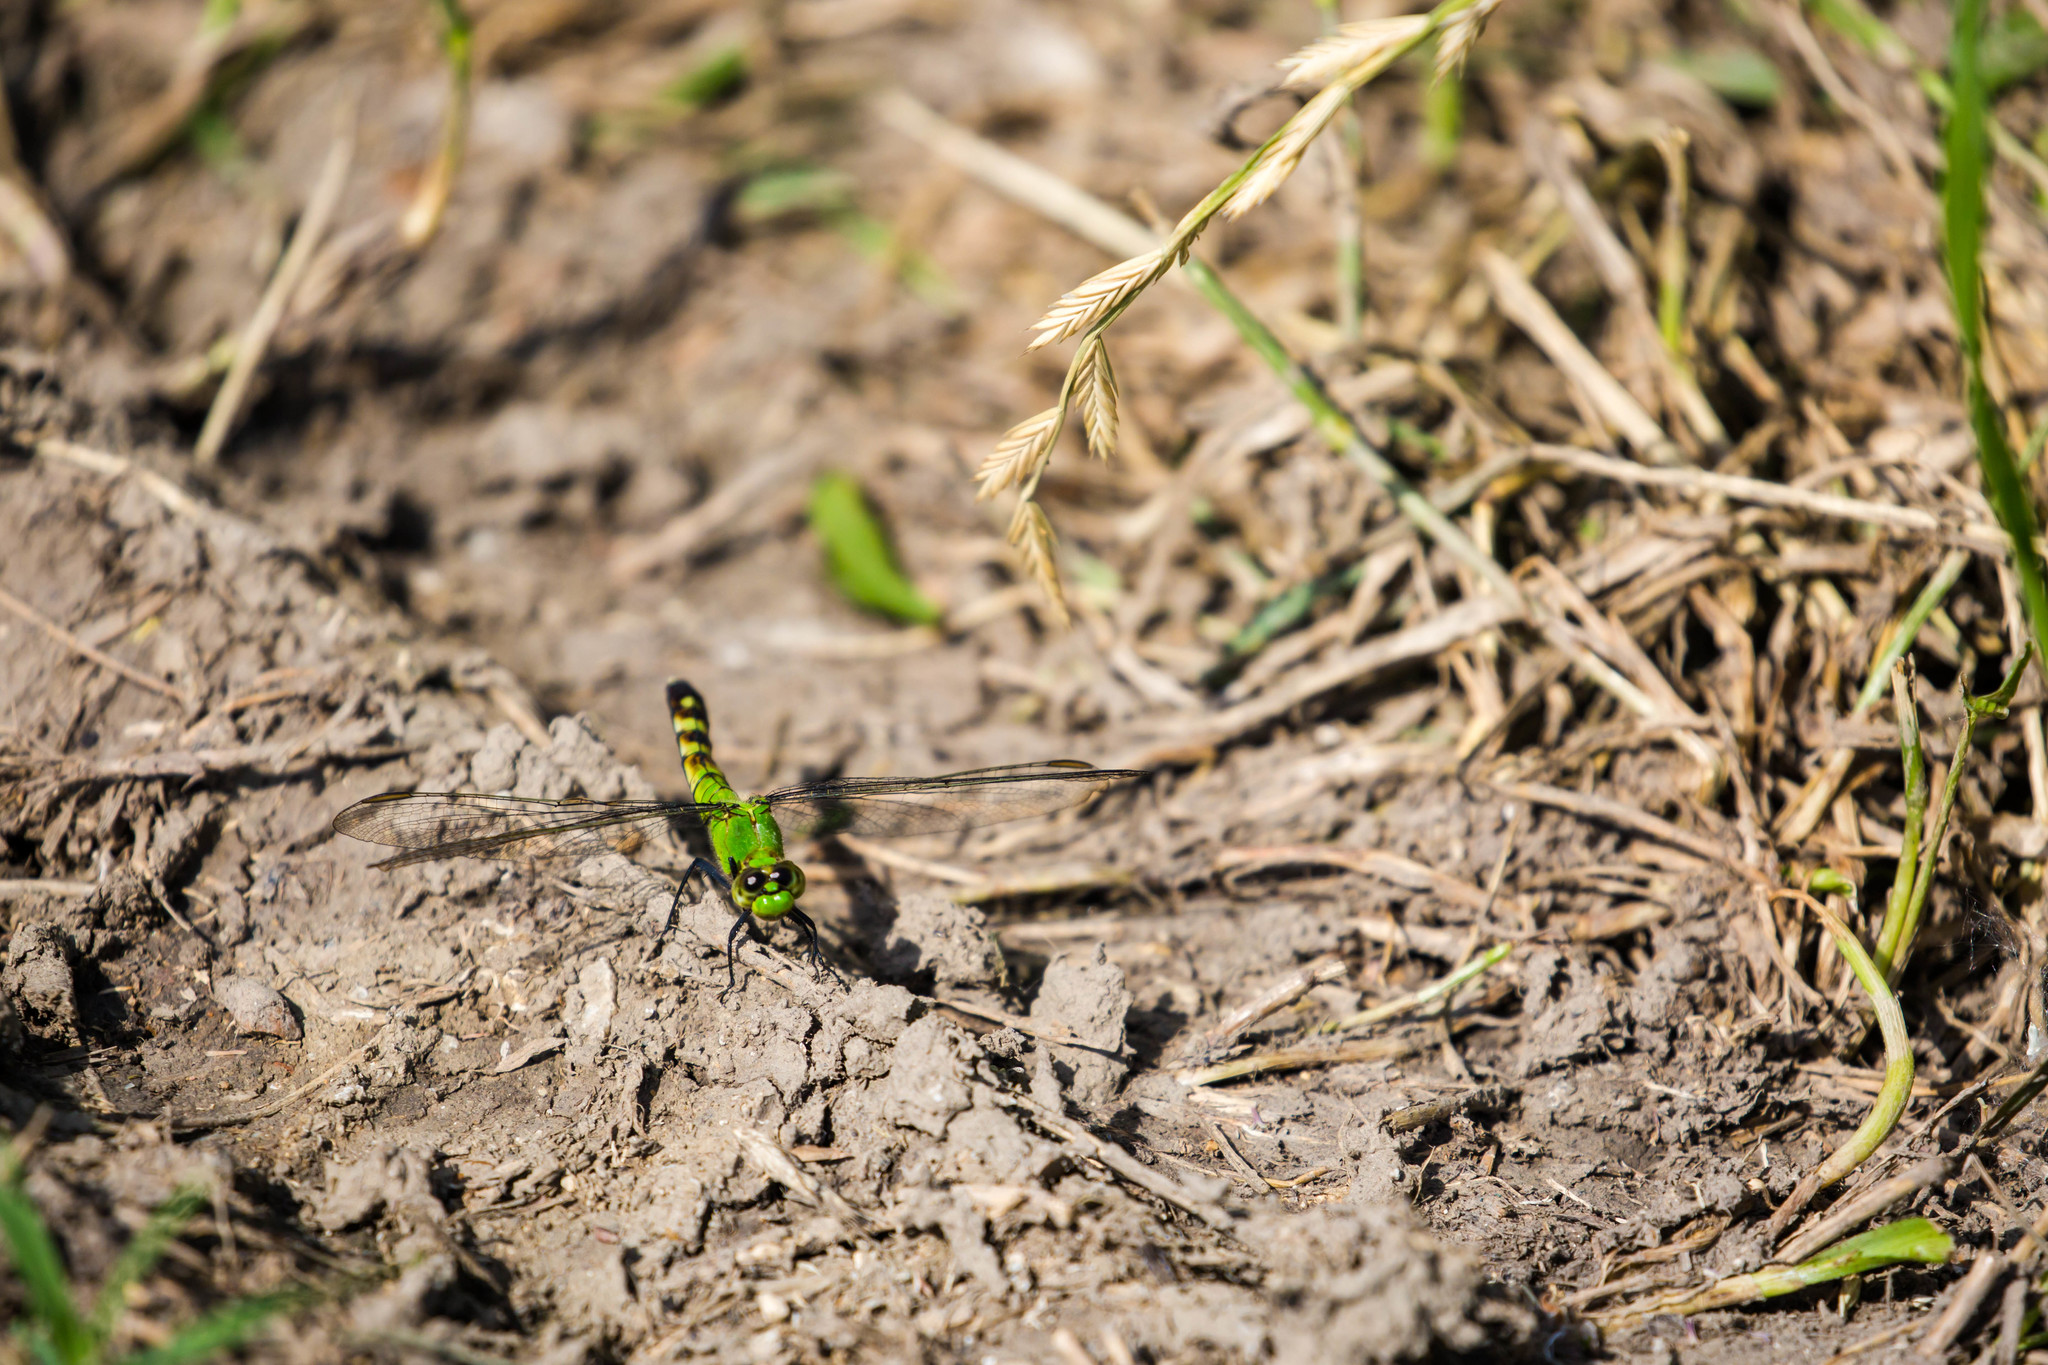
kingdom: Animalia
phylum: Arthropoda
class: Insecta
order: Odonata
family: Libellulidae
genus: Erythemis
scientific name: Erythemis simplicicollis
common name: Eastern pondhawk
